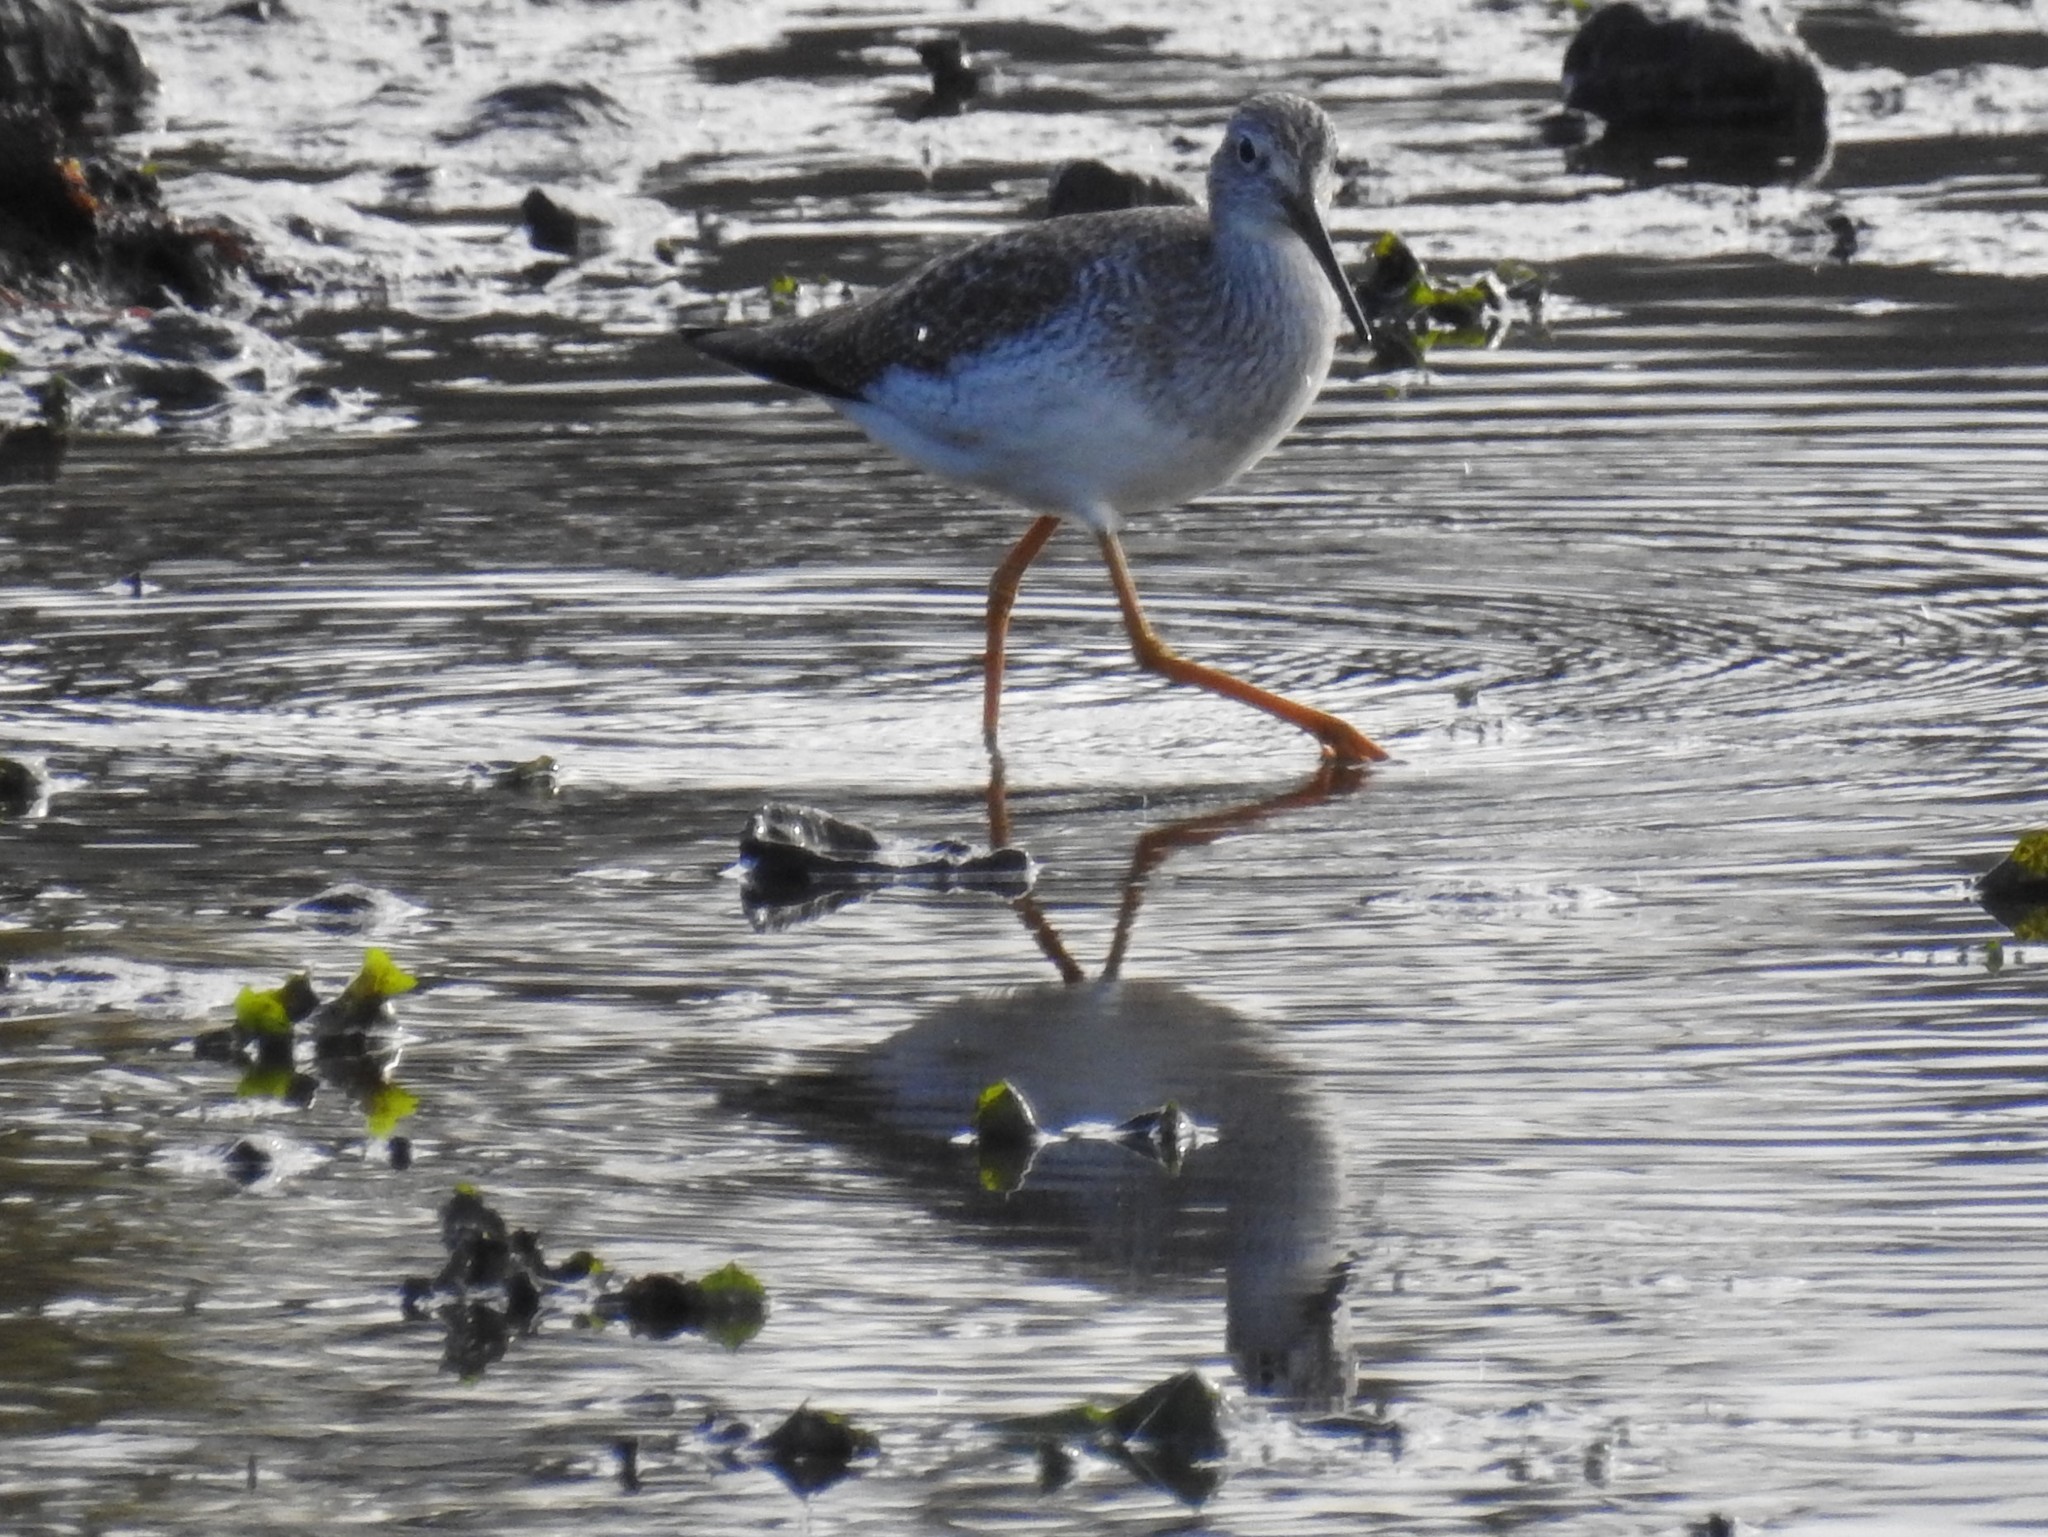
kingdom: Animalia
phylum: Chordata
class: Aves
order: Charadriiformes
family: Scolopacidae
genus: Tringa
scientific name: Tringa melanoleuca
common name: Greater yellowlegs
